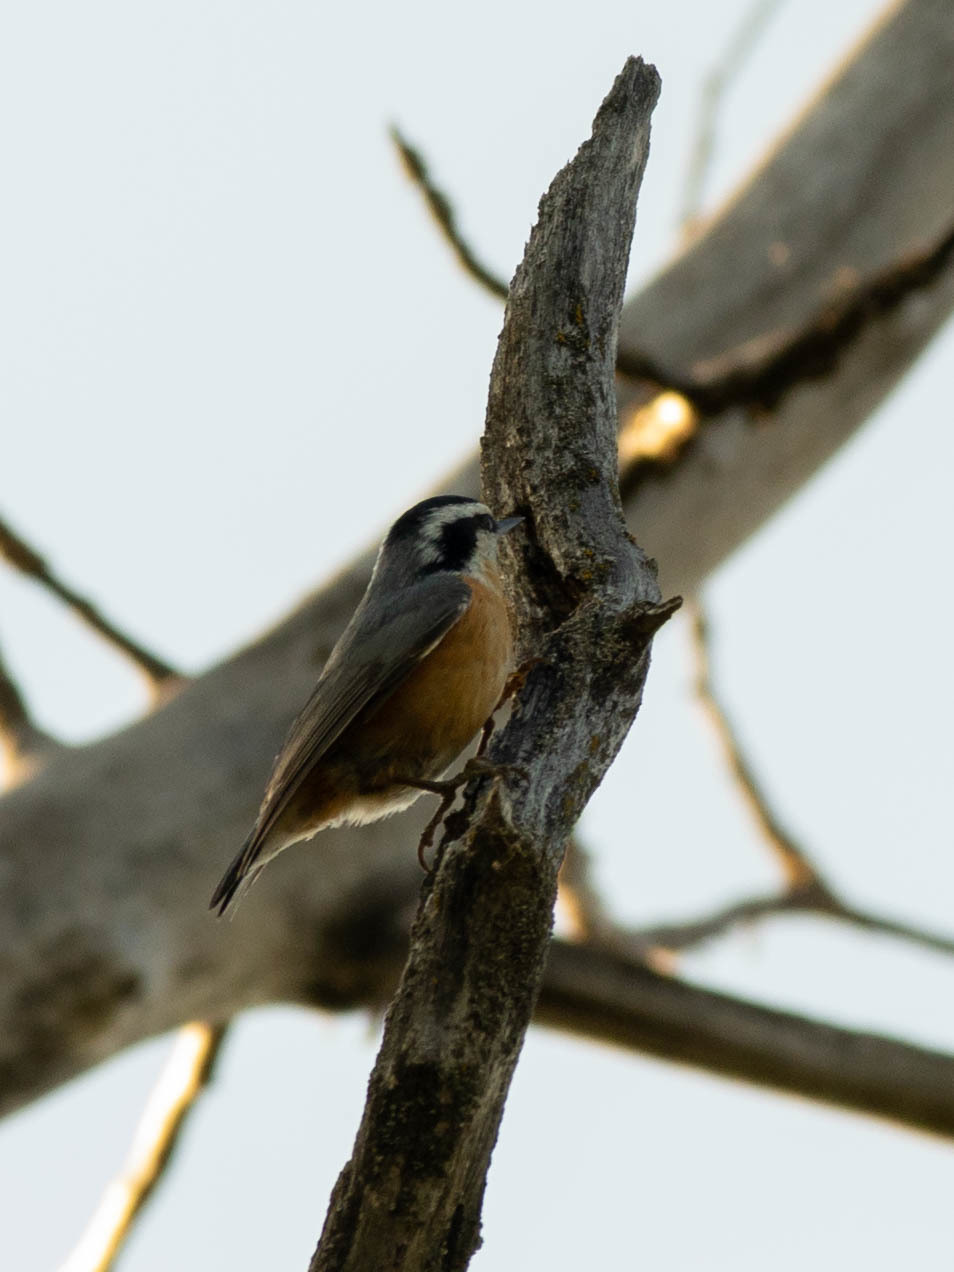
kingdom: Animalia
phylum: Chordata
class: Aves
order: Passeriformes
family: Sittidae
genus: Sitta
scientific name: Sitta canadensis
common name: Red-breasted nuthatch
